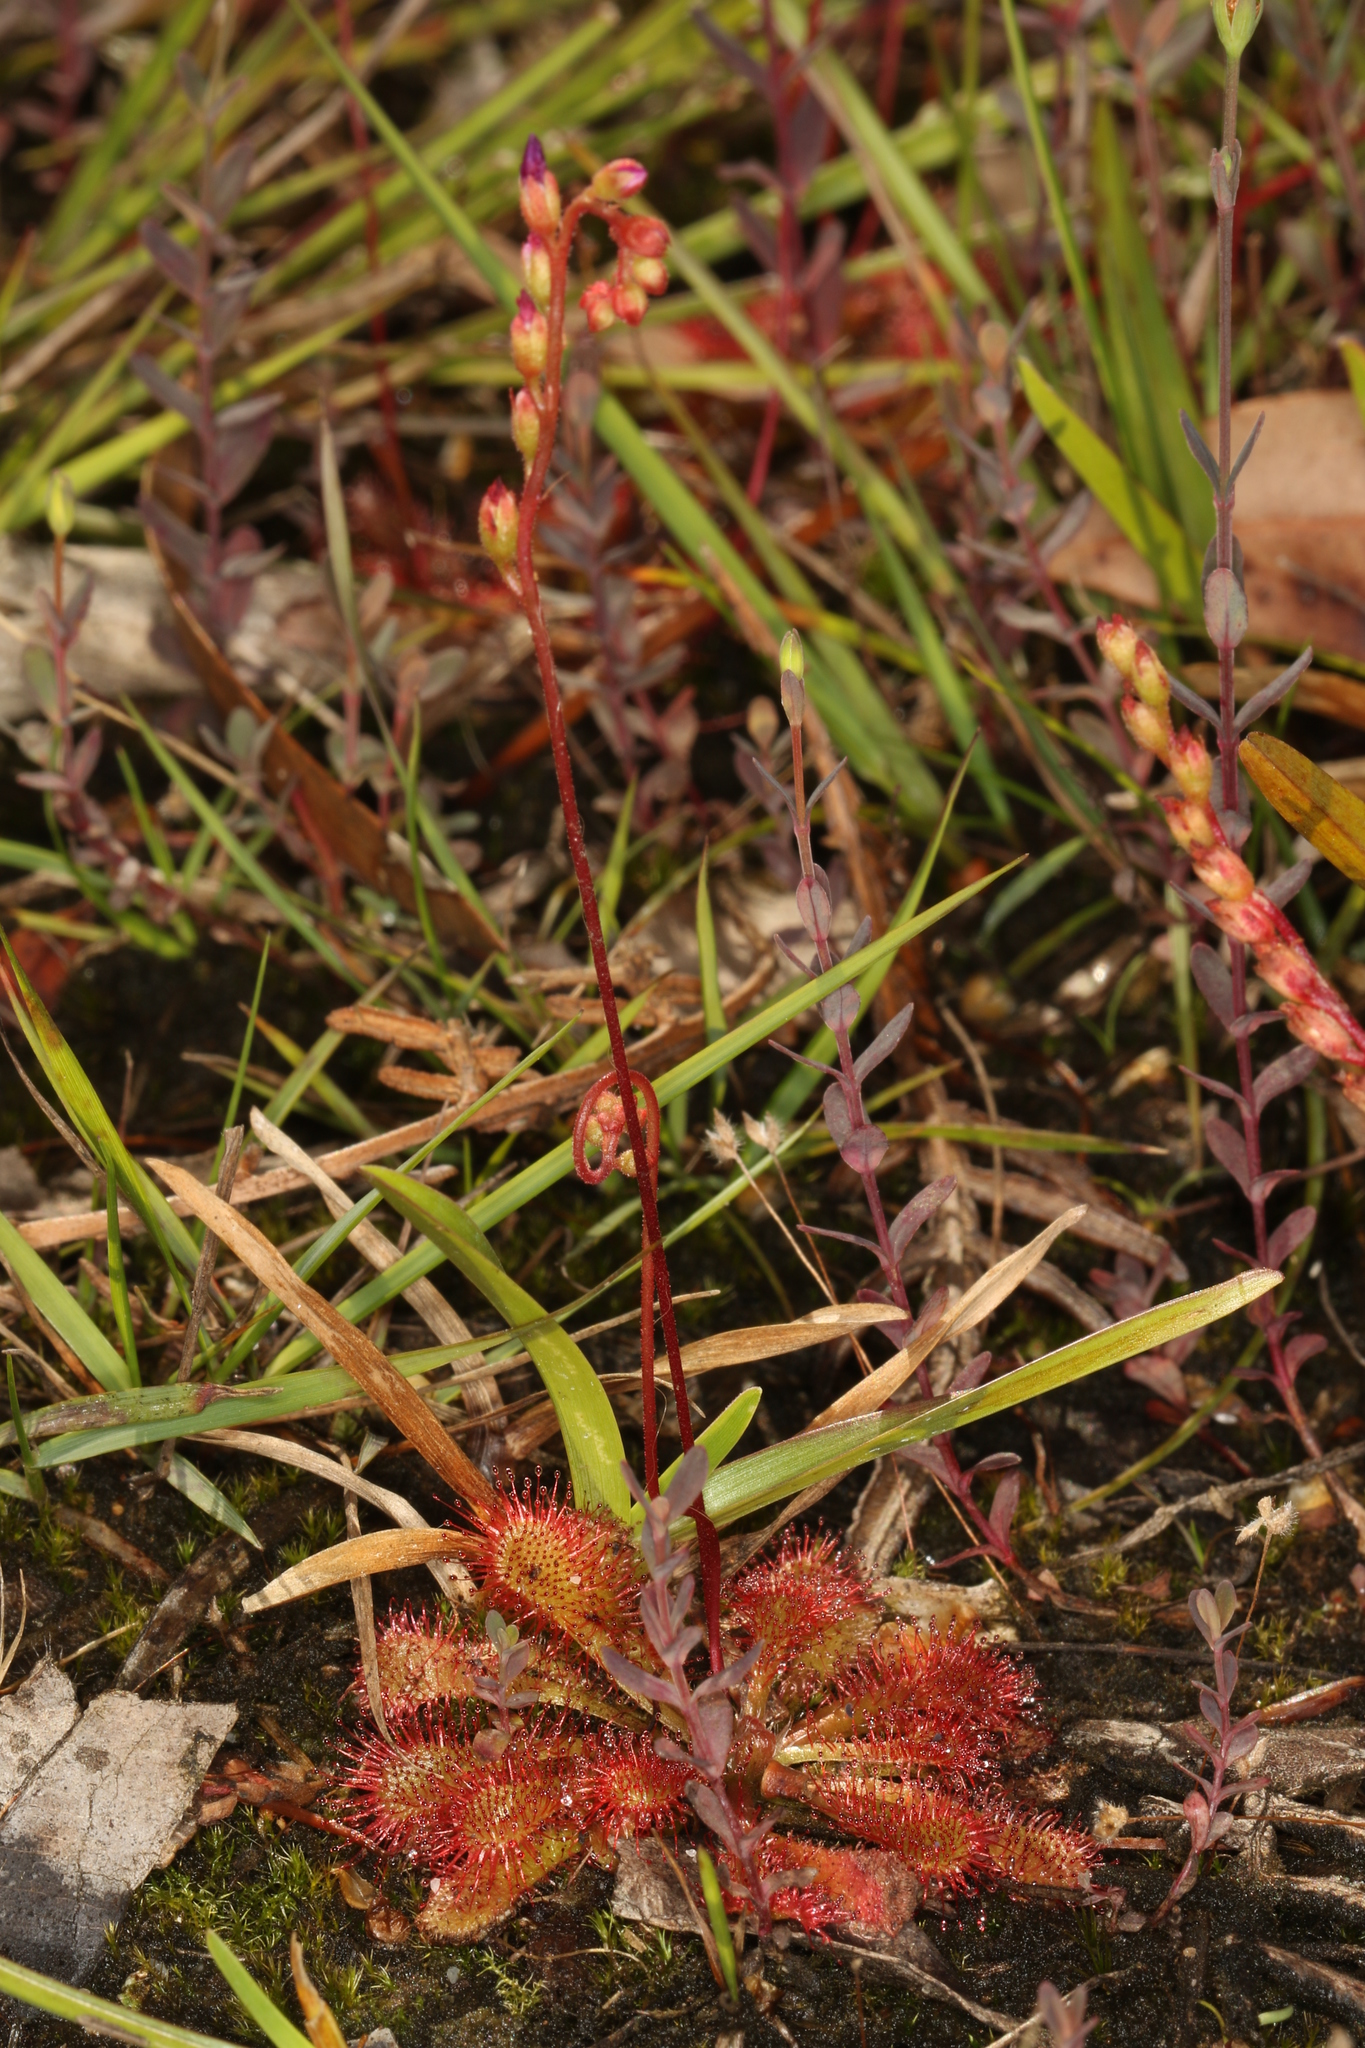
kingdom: Plantae
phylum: Tracheophyta
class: Magnoliopsida
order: Caryophyllales
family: Droseraceae
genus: Drosera
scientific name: Drosera spatulata
